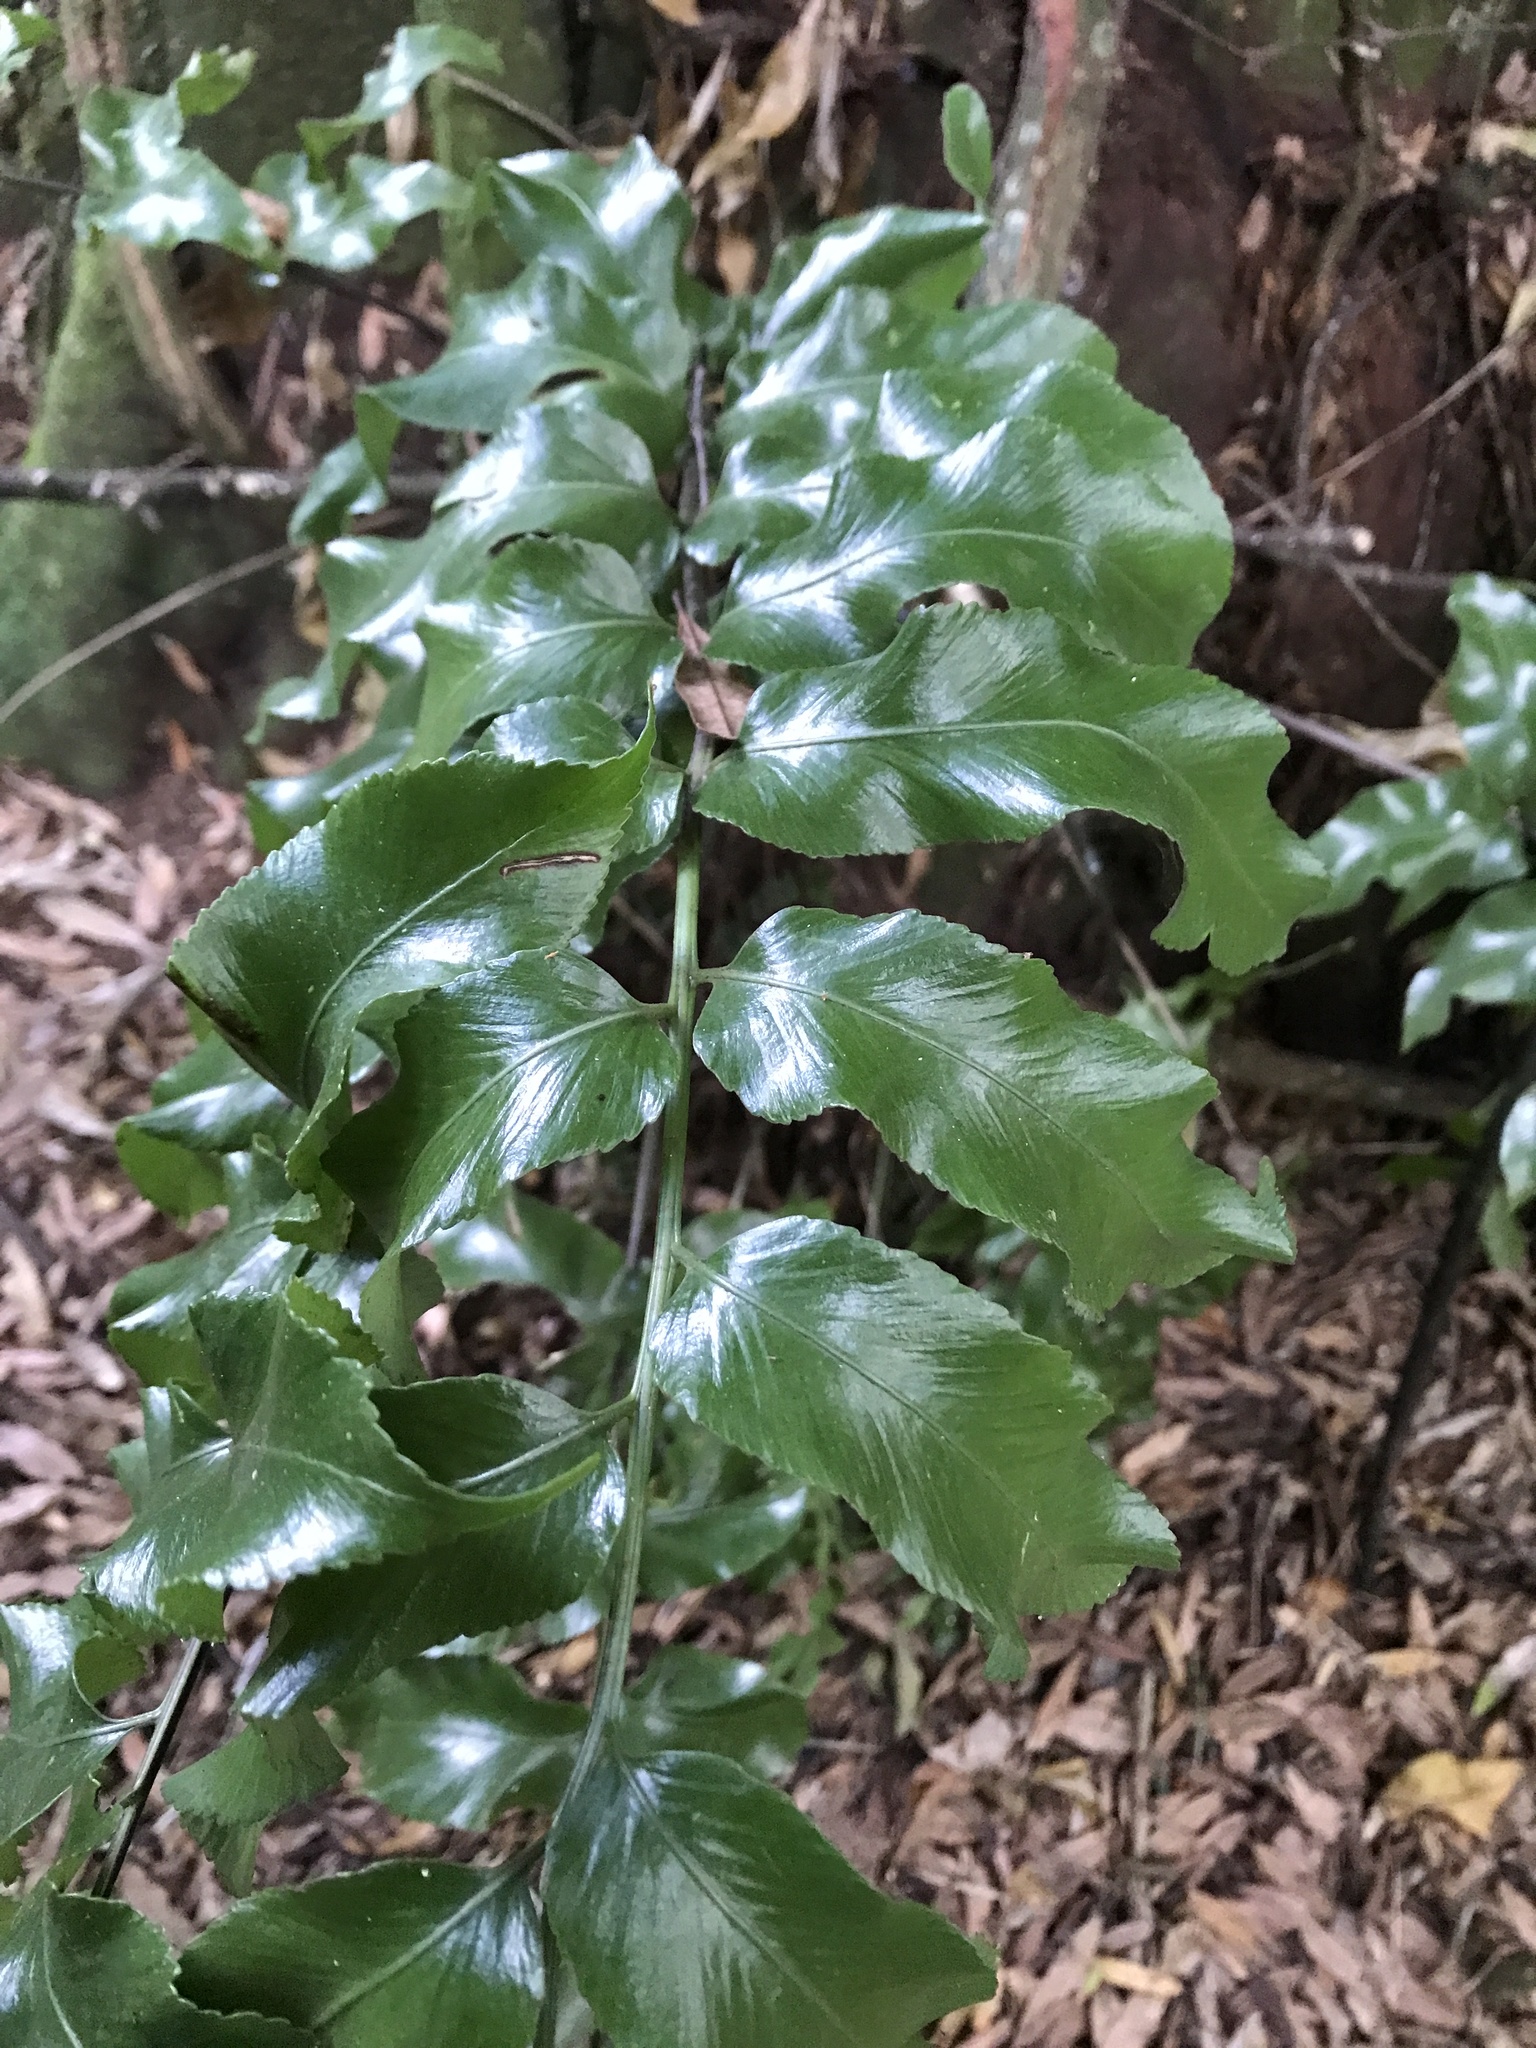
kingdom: Plantae
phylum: Tracheophyta
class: Polypodiopsida
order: Polypodiales
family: Aspleniaceae
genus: Asplenium
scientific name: Asplenium oblongifolium
